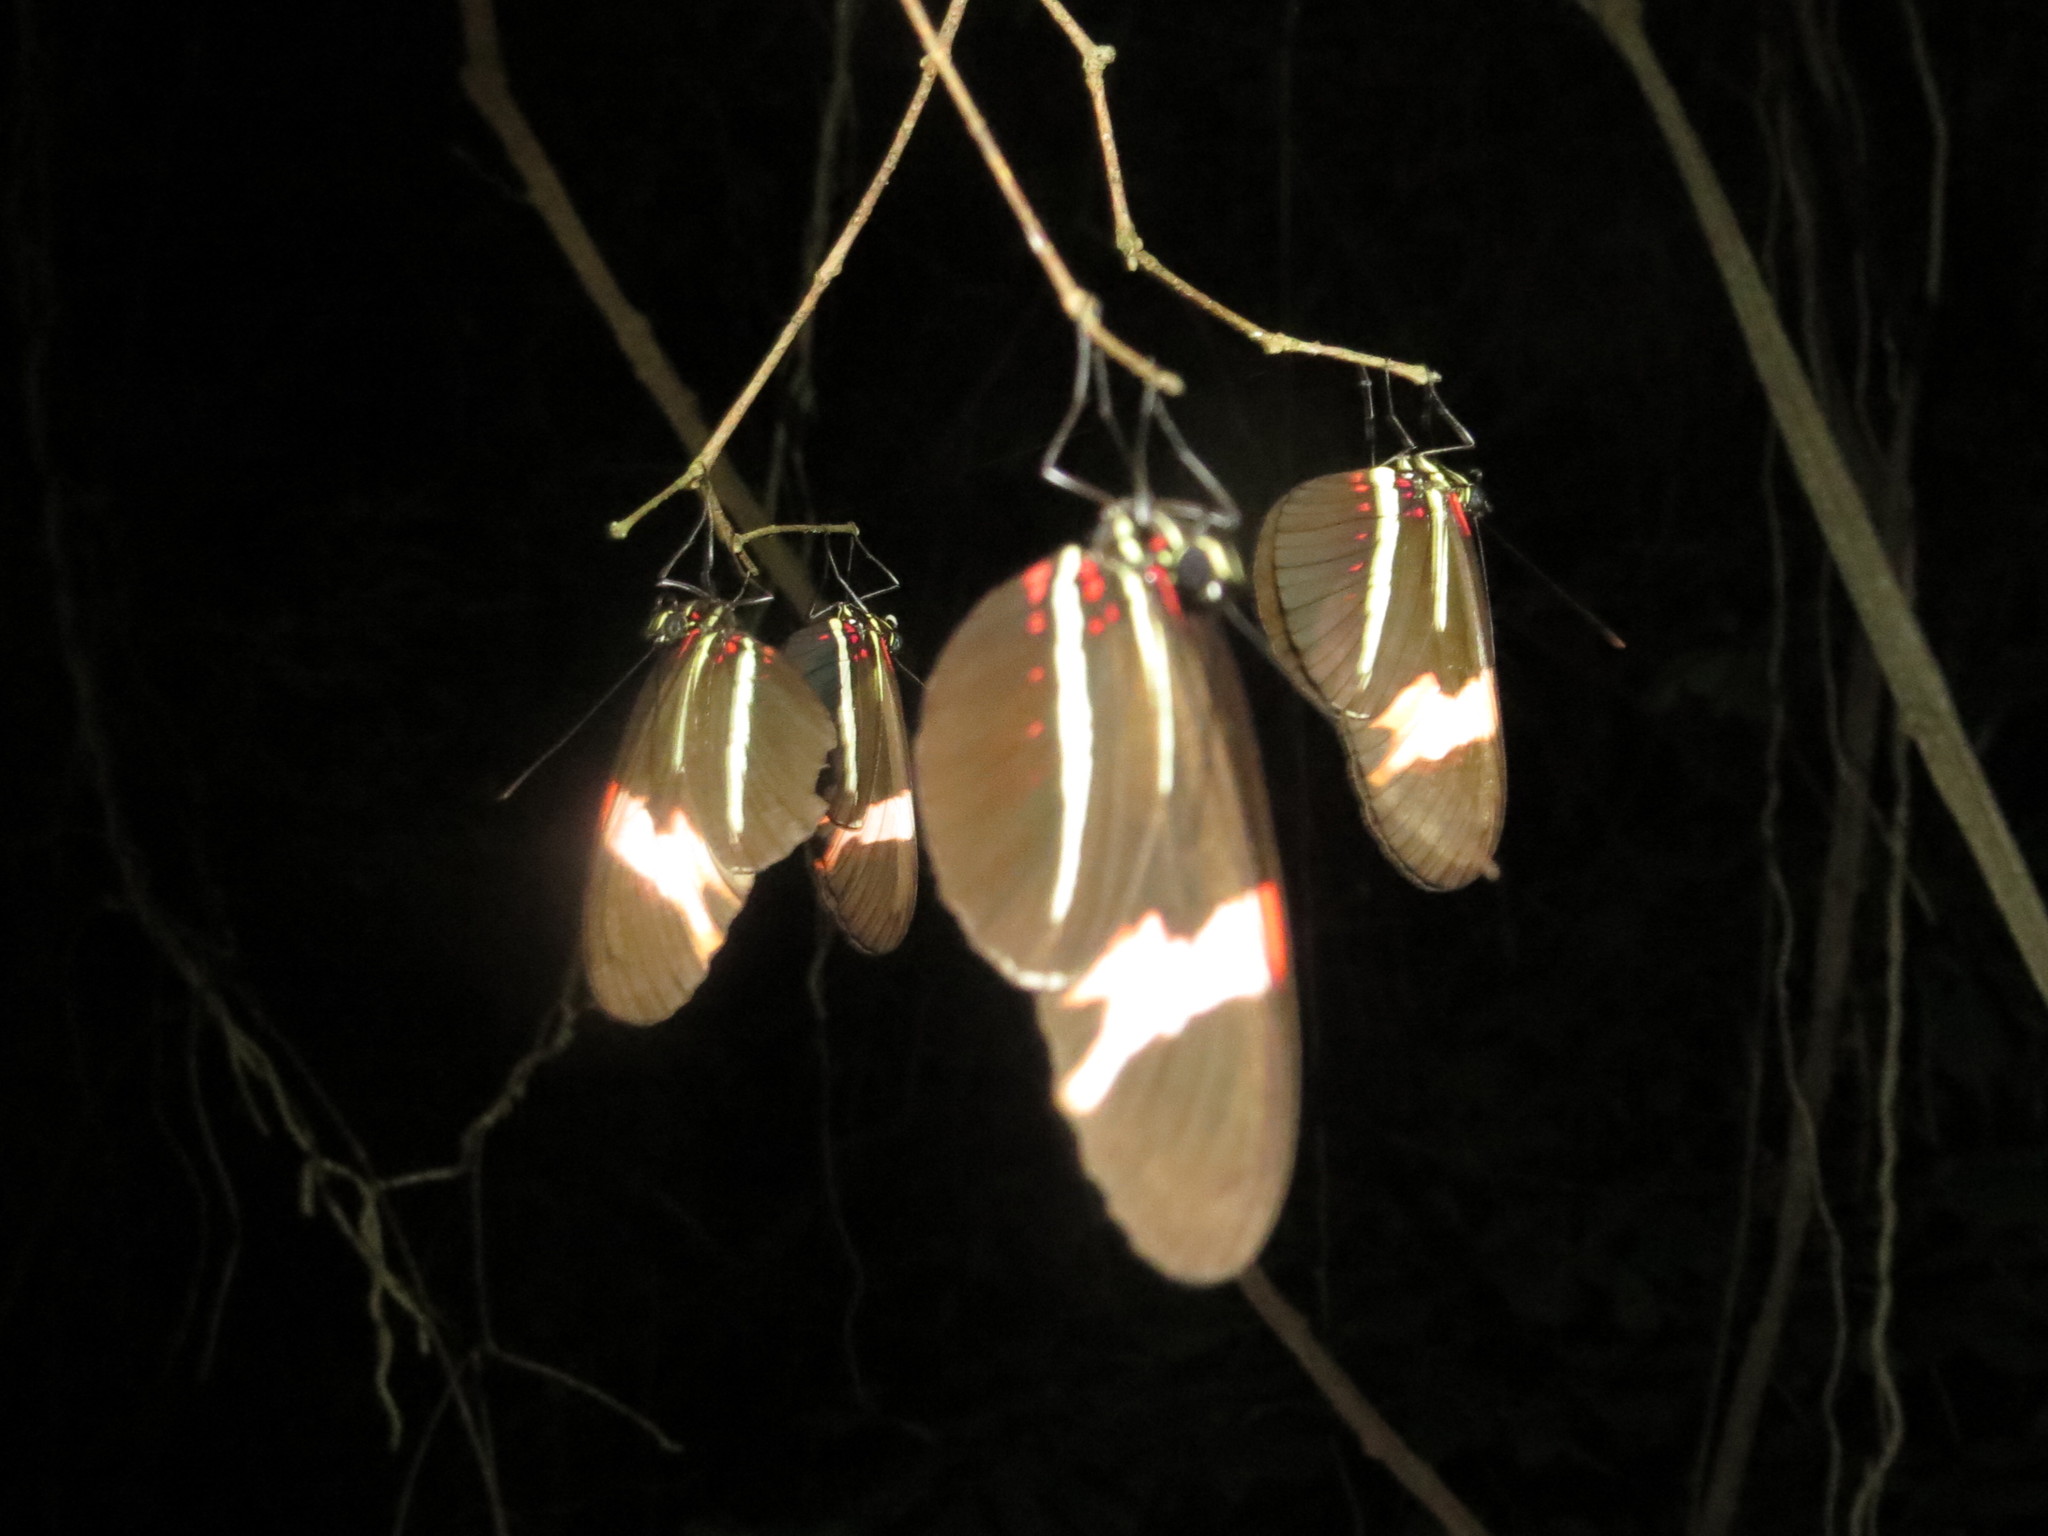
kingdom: Animalia
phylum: Arthropoda
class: Insecta
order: Lepidoptera
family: Nymphalidae
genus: Heliconius
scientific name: Heliconius erato
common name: Common patch longwing
